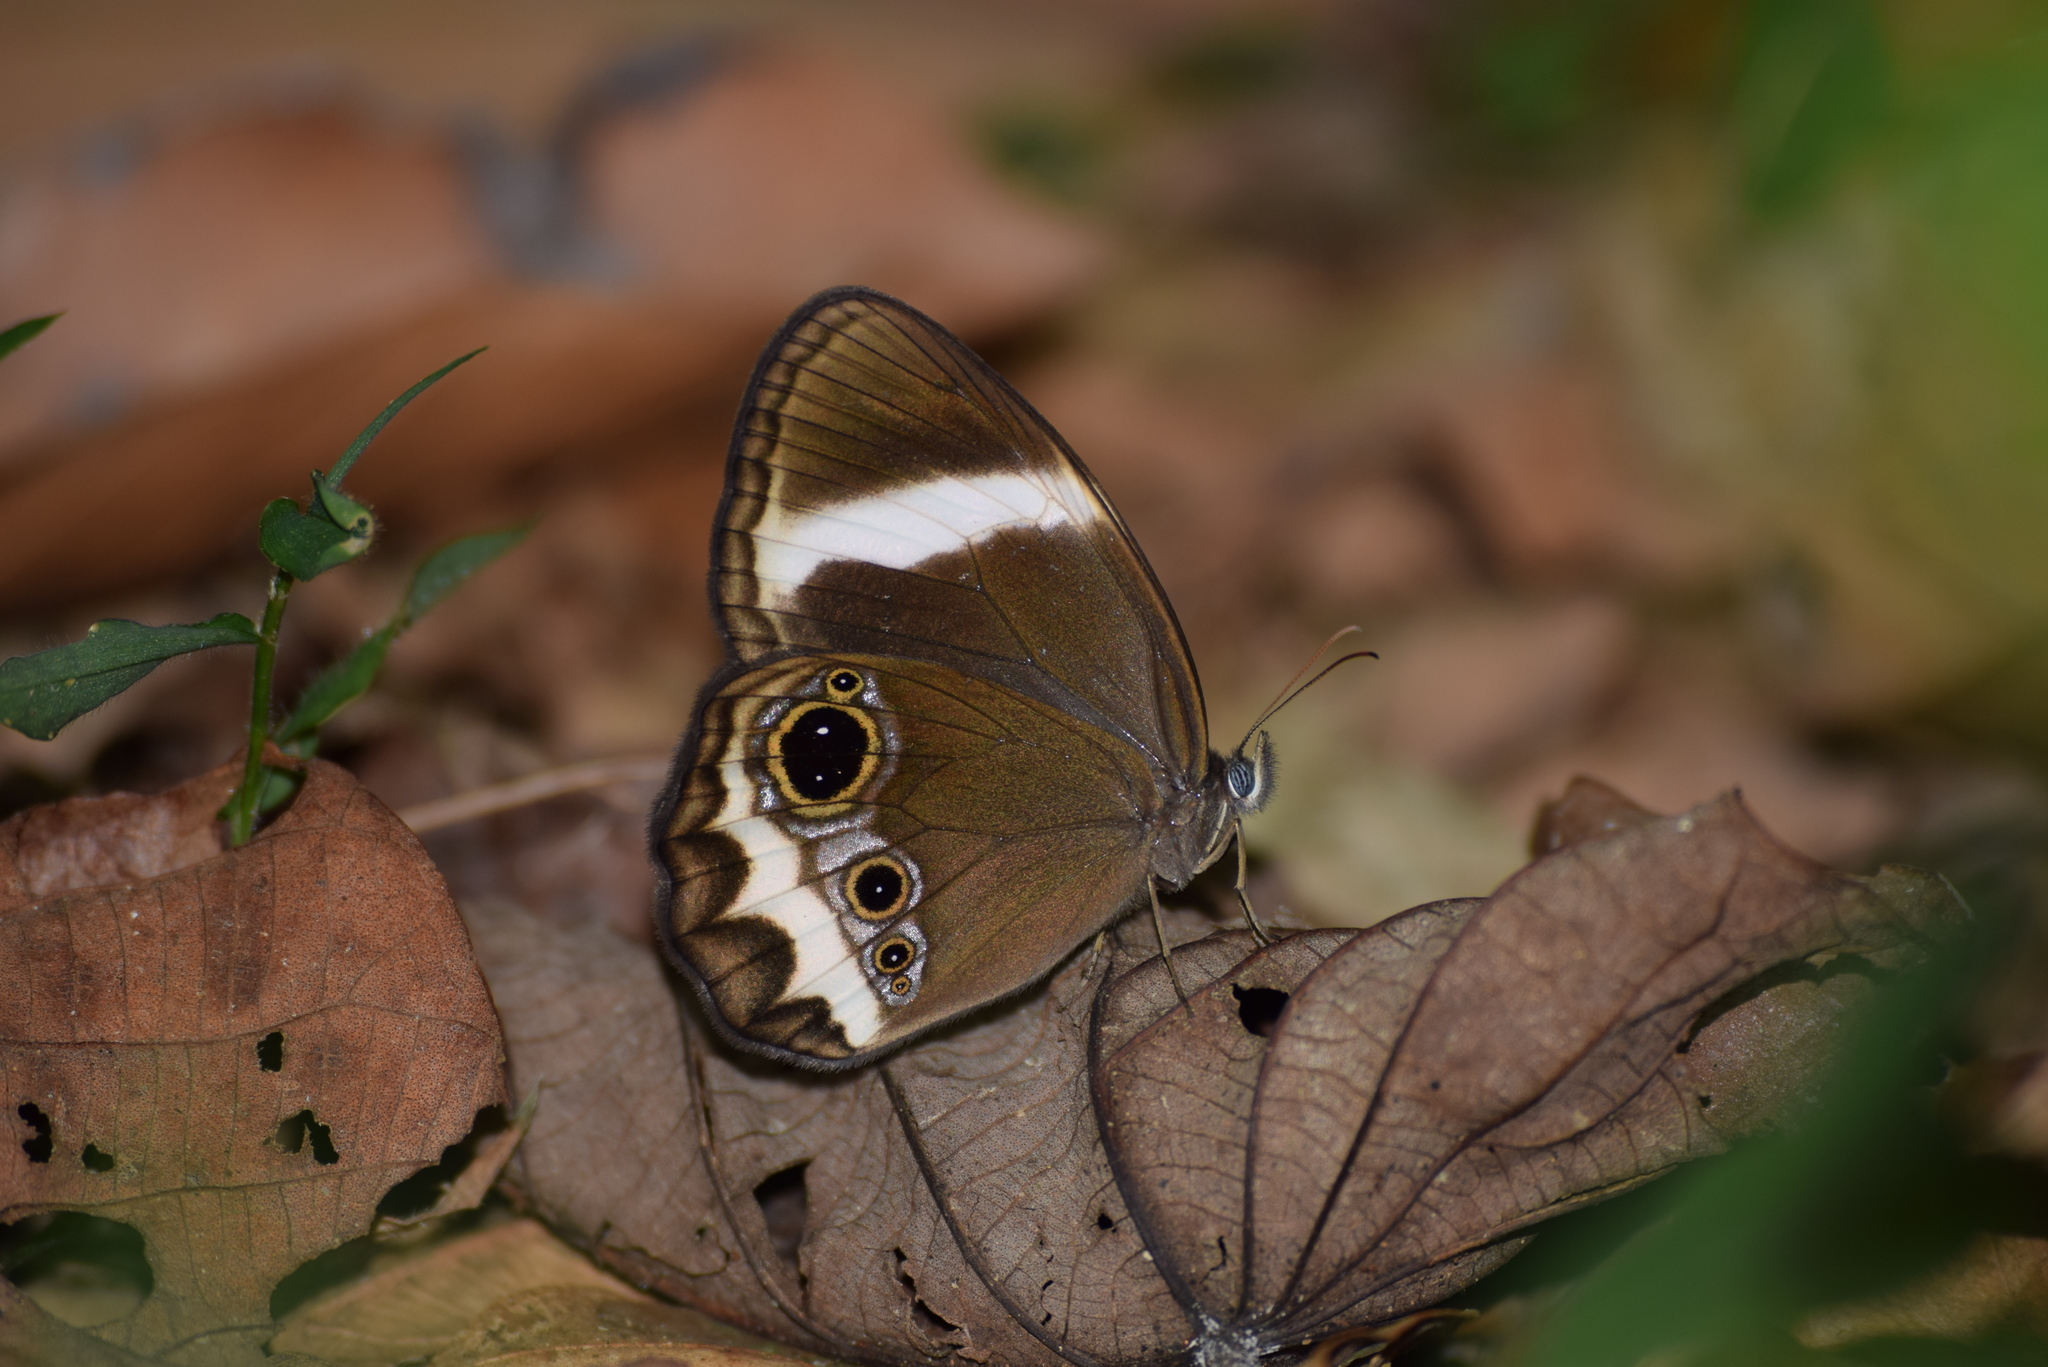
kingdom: Animalia
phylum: Arthropoda
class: Insecta
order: Lepidoptera
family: Nymphalidae
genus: Zipaetis
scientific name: Zipaetis saitis
